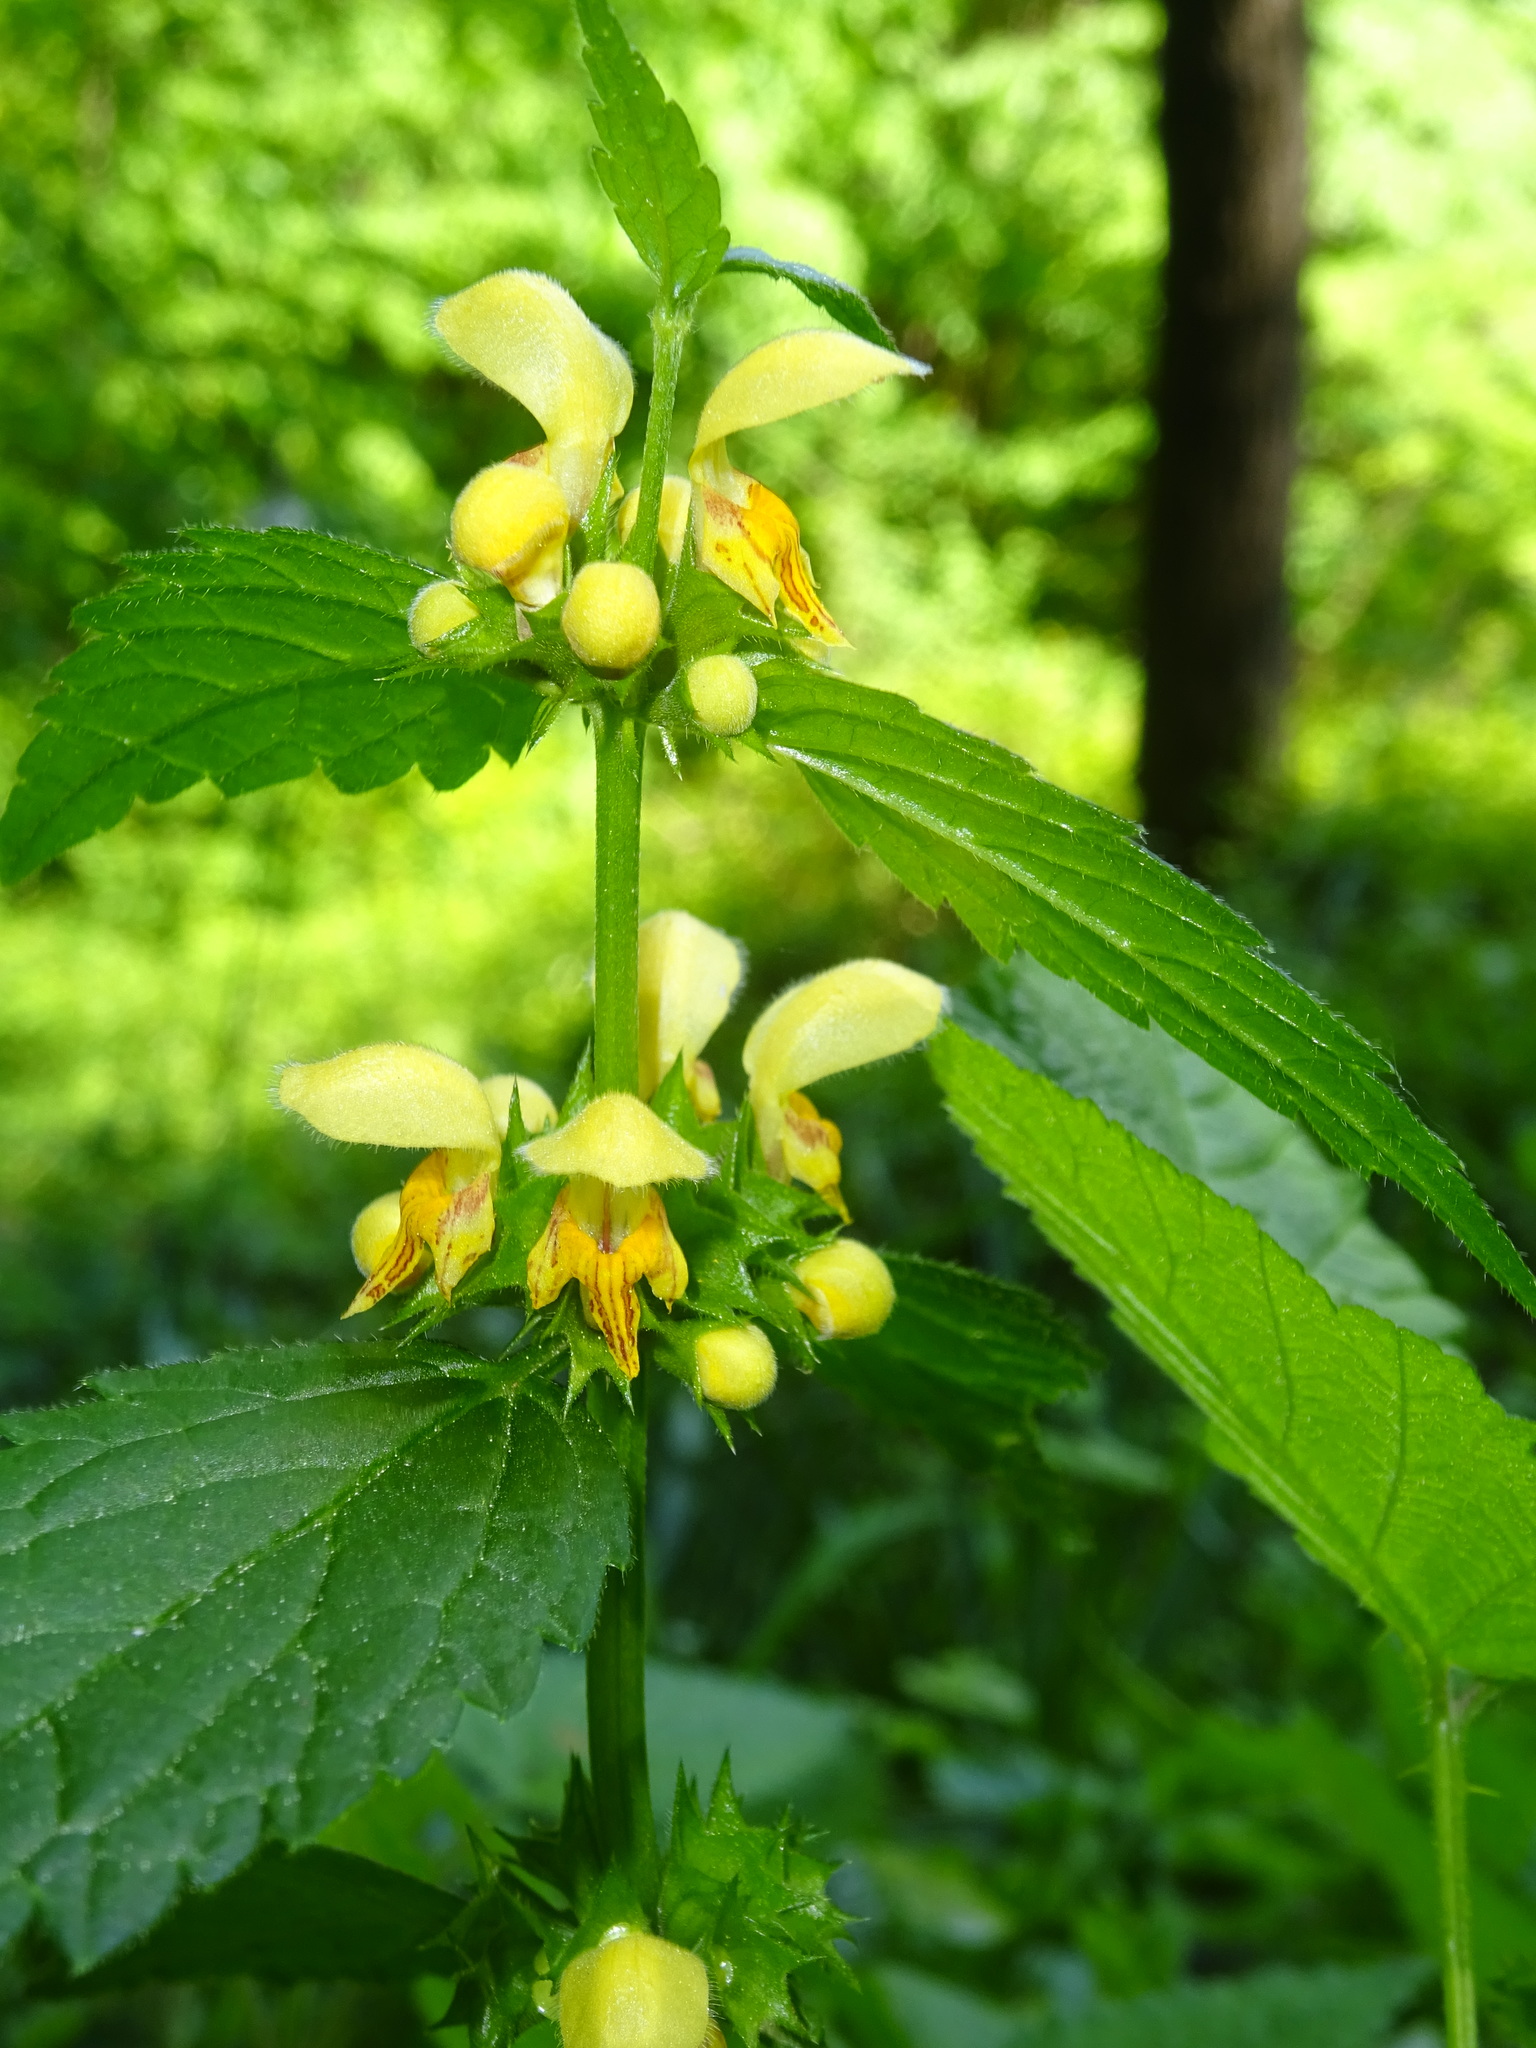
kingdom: Plantae
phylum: Tracheophyta
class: Magnoliopsida
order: Lamiales
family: Lamiaceae
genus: Lamium
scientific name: Lamium galeobdolon
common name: Yellow archangel
